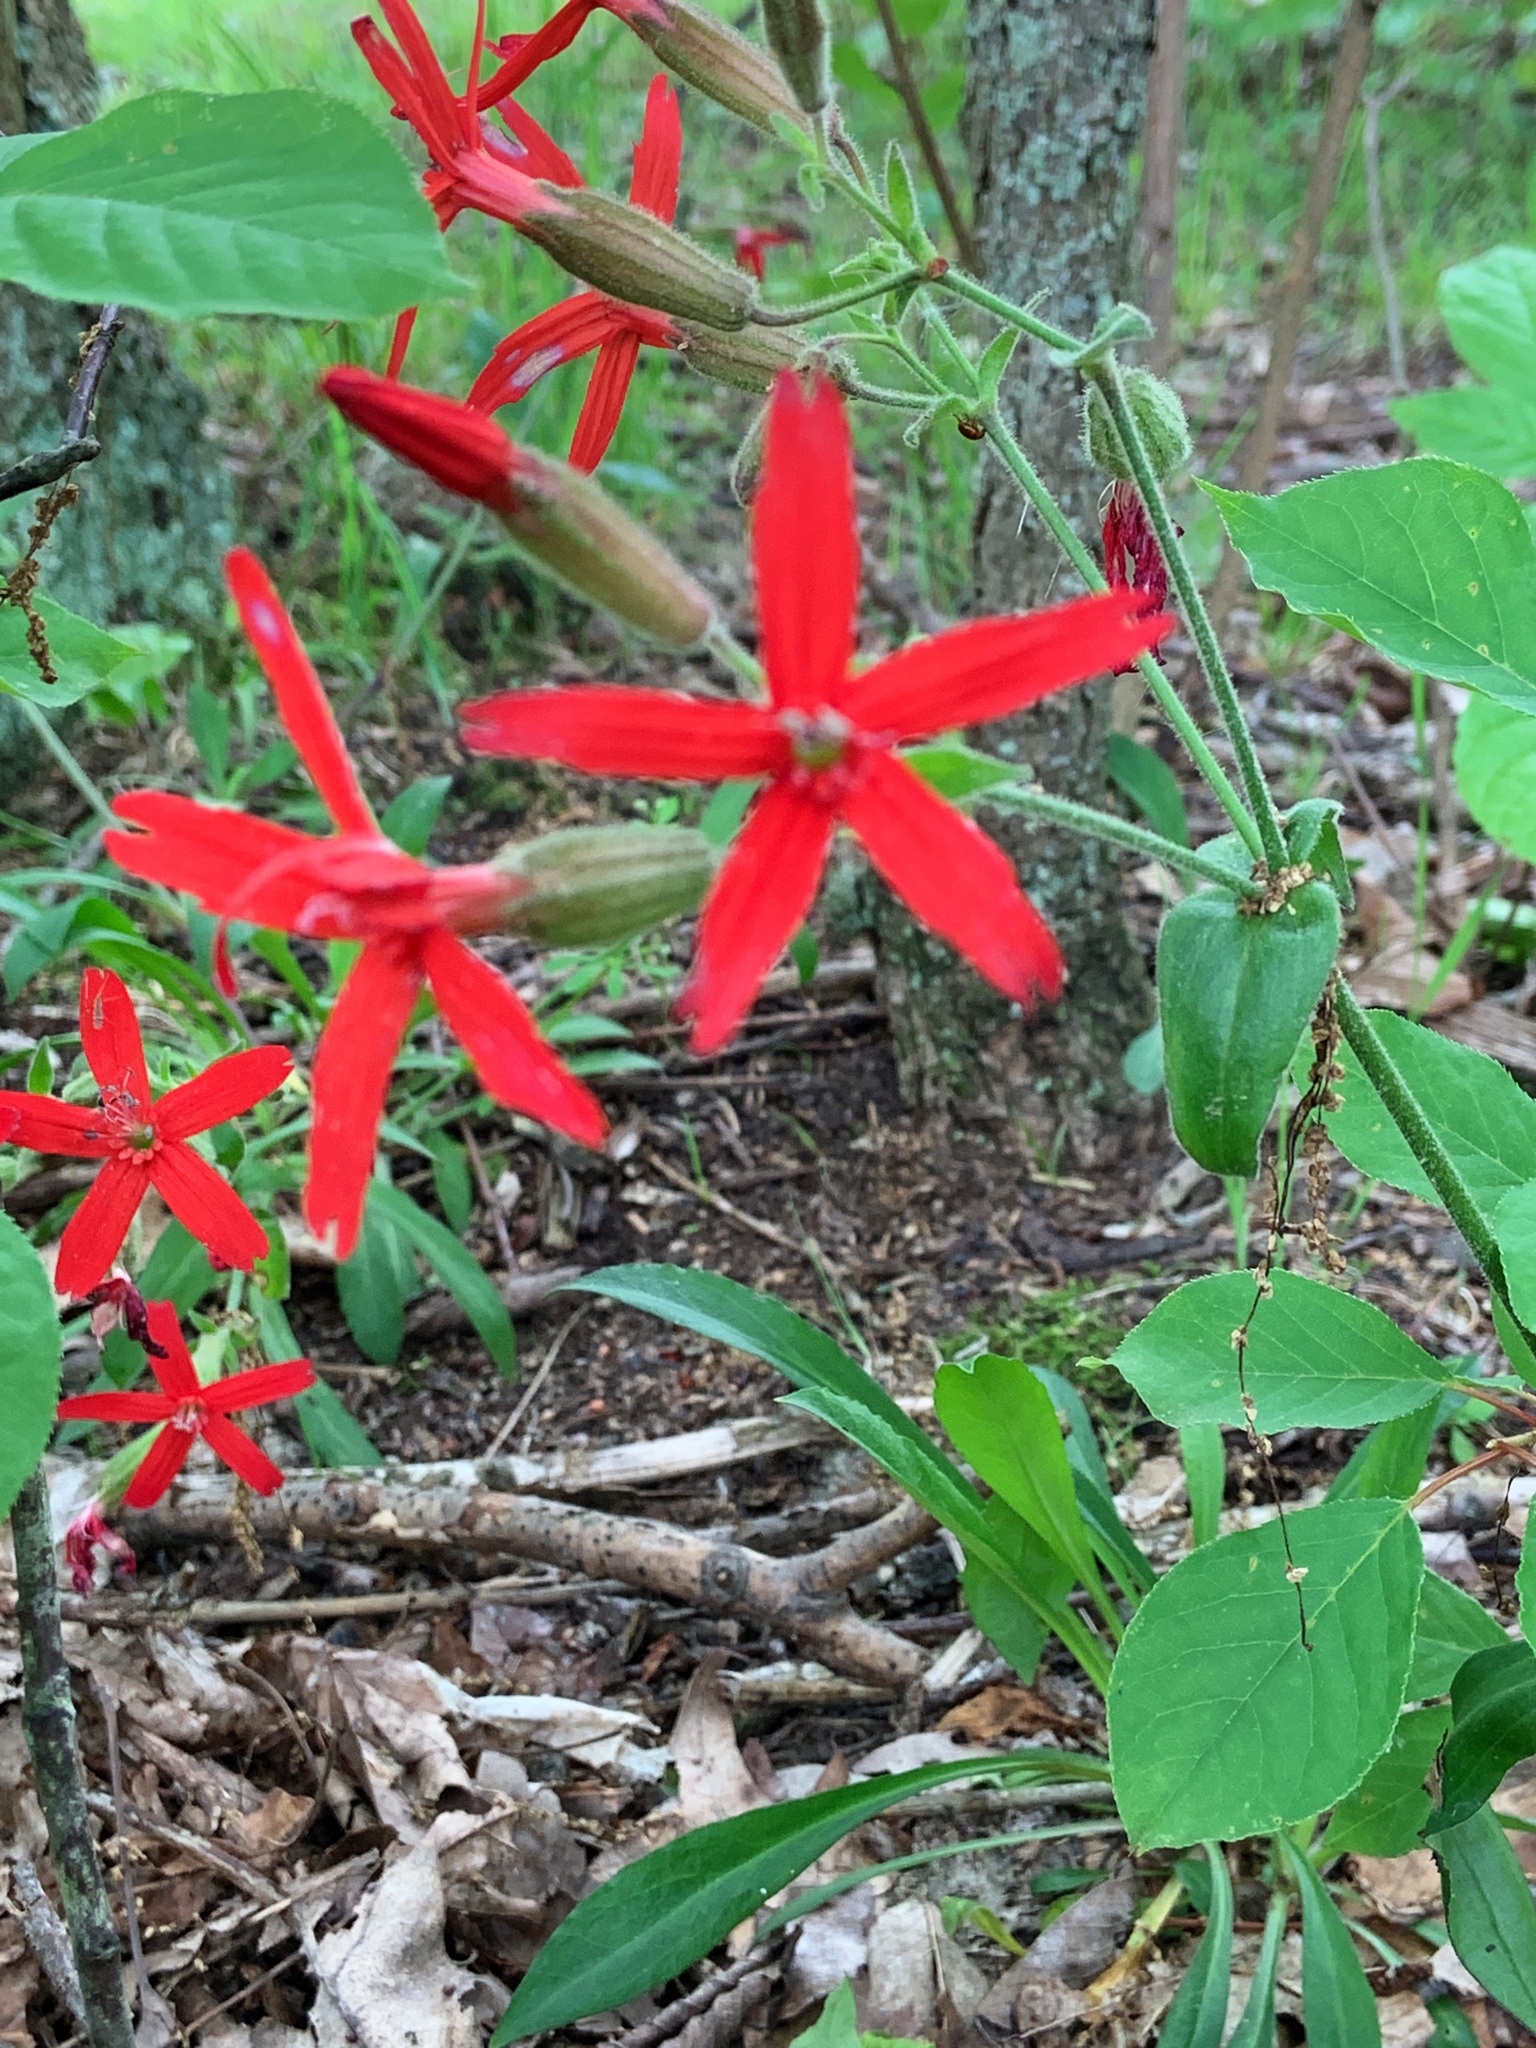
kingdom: Plantae
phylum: Tracheophyta
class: Magnoliopsida
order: Caryophyllales
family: Caryophyllaceae
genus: Silene
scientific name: Silene virginica
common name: Fire-pink
